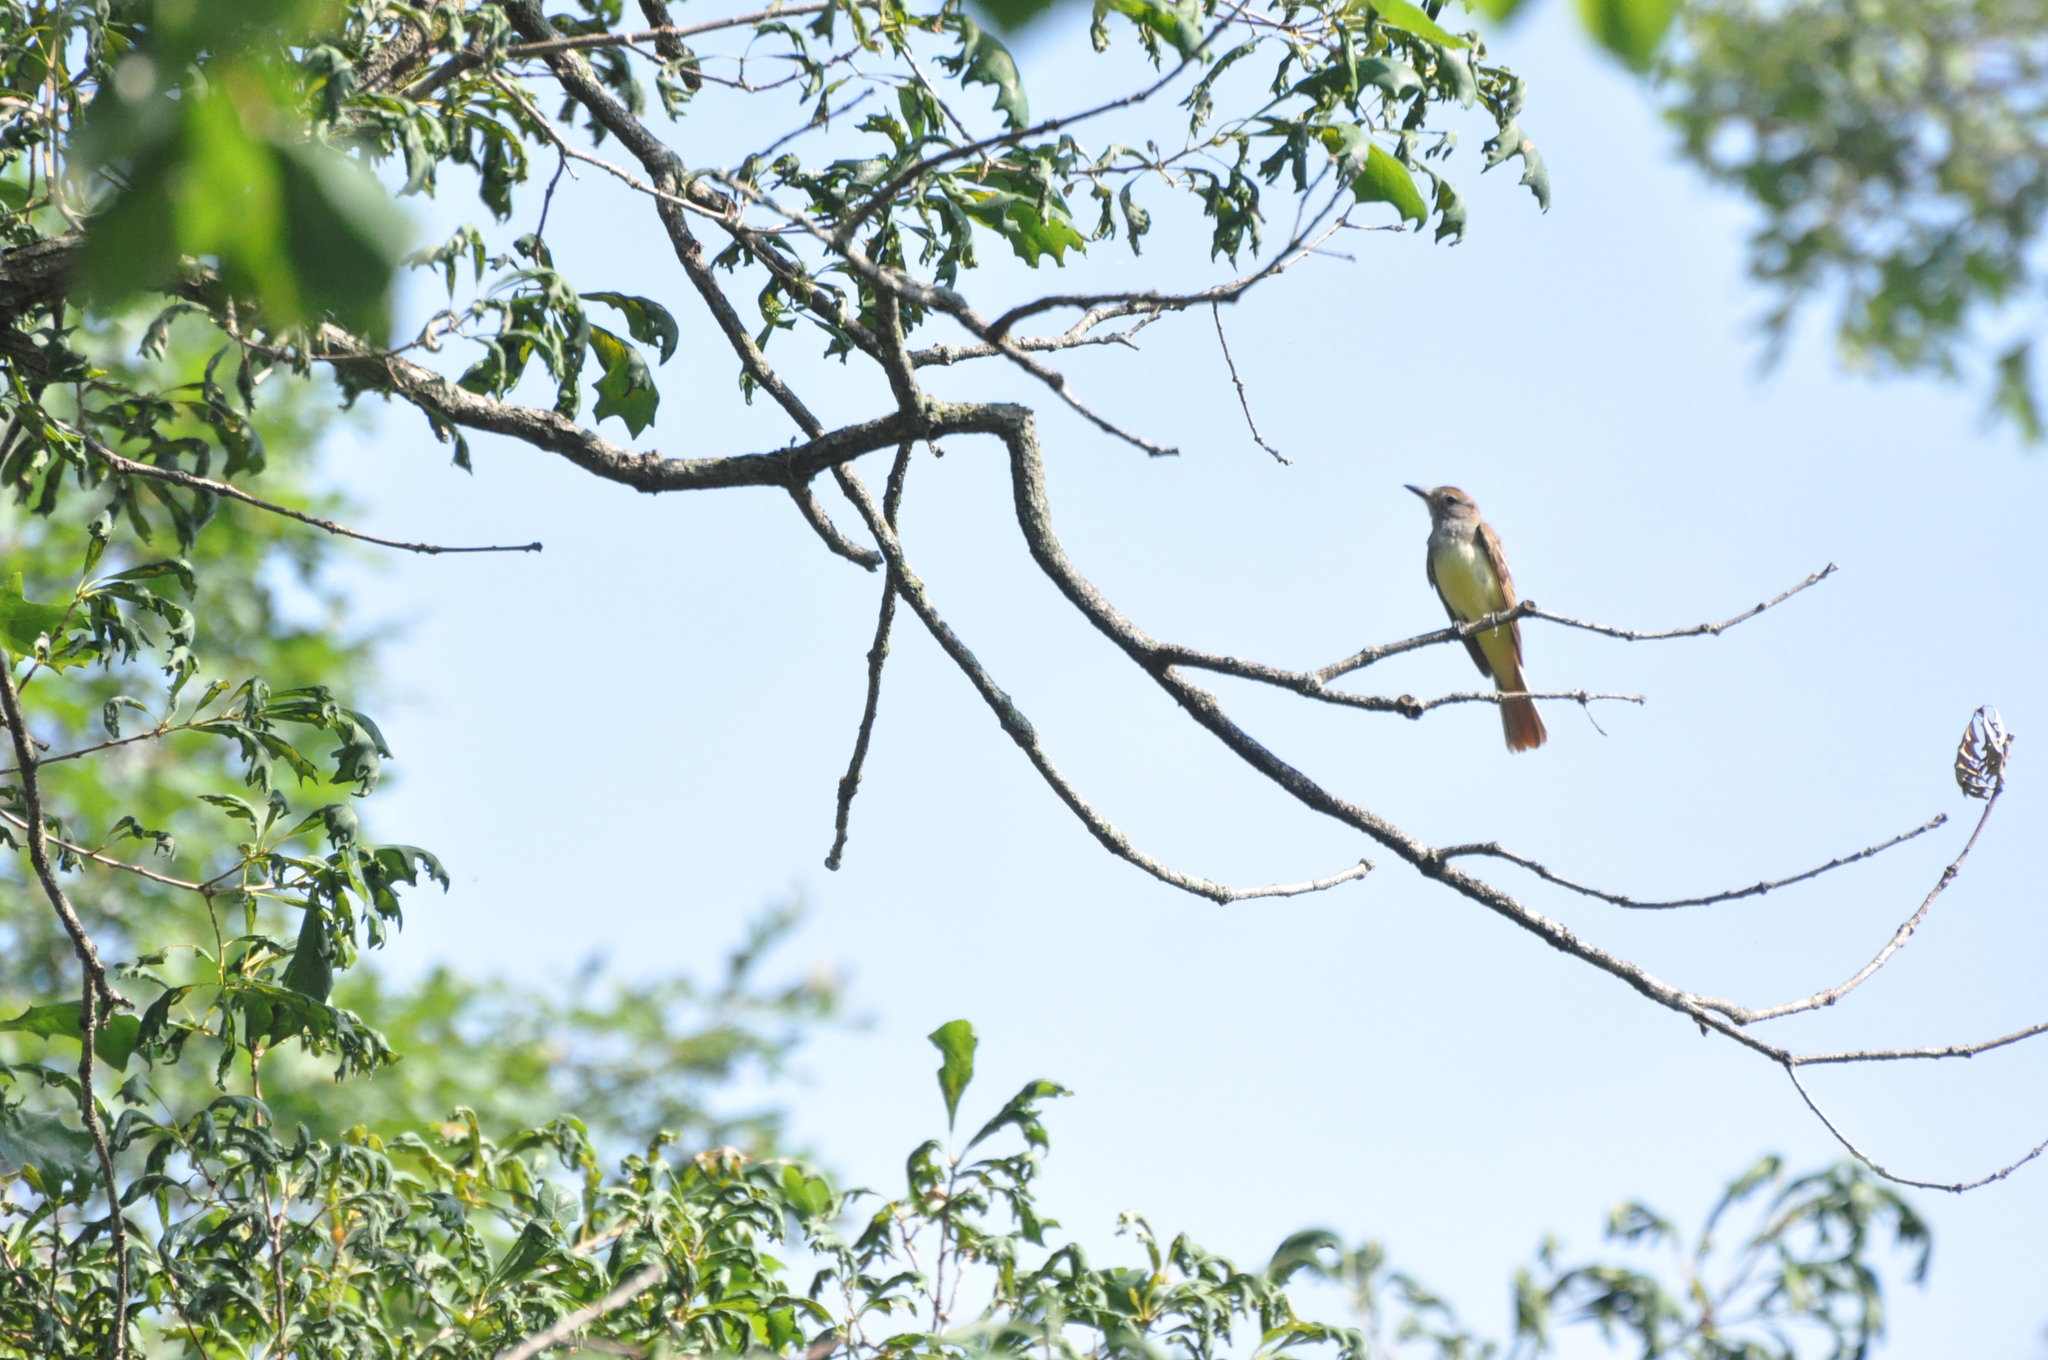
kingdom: Animalia
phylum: Chordata
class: Aves
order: Passeriformes
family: Tyrannidae
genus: Myiarchus
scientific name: Myiarchus crinitus
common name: Great crested flycatcher
